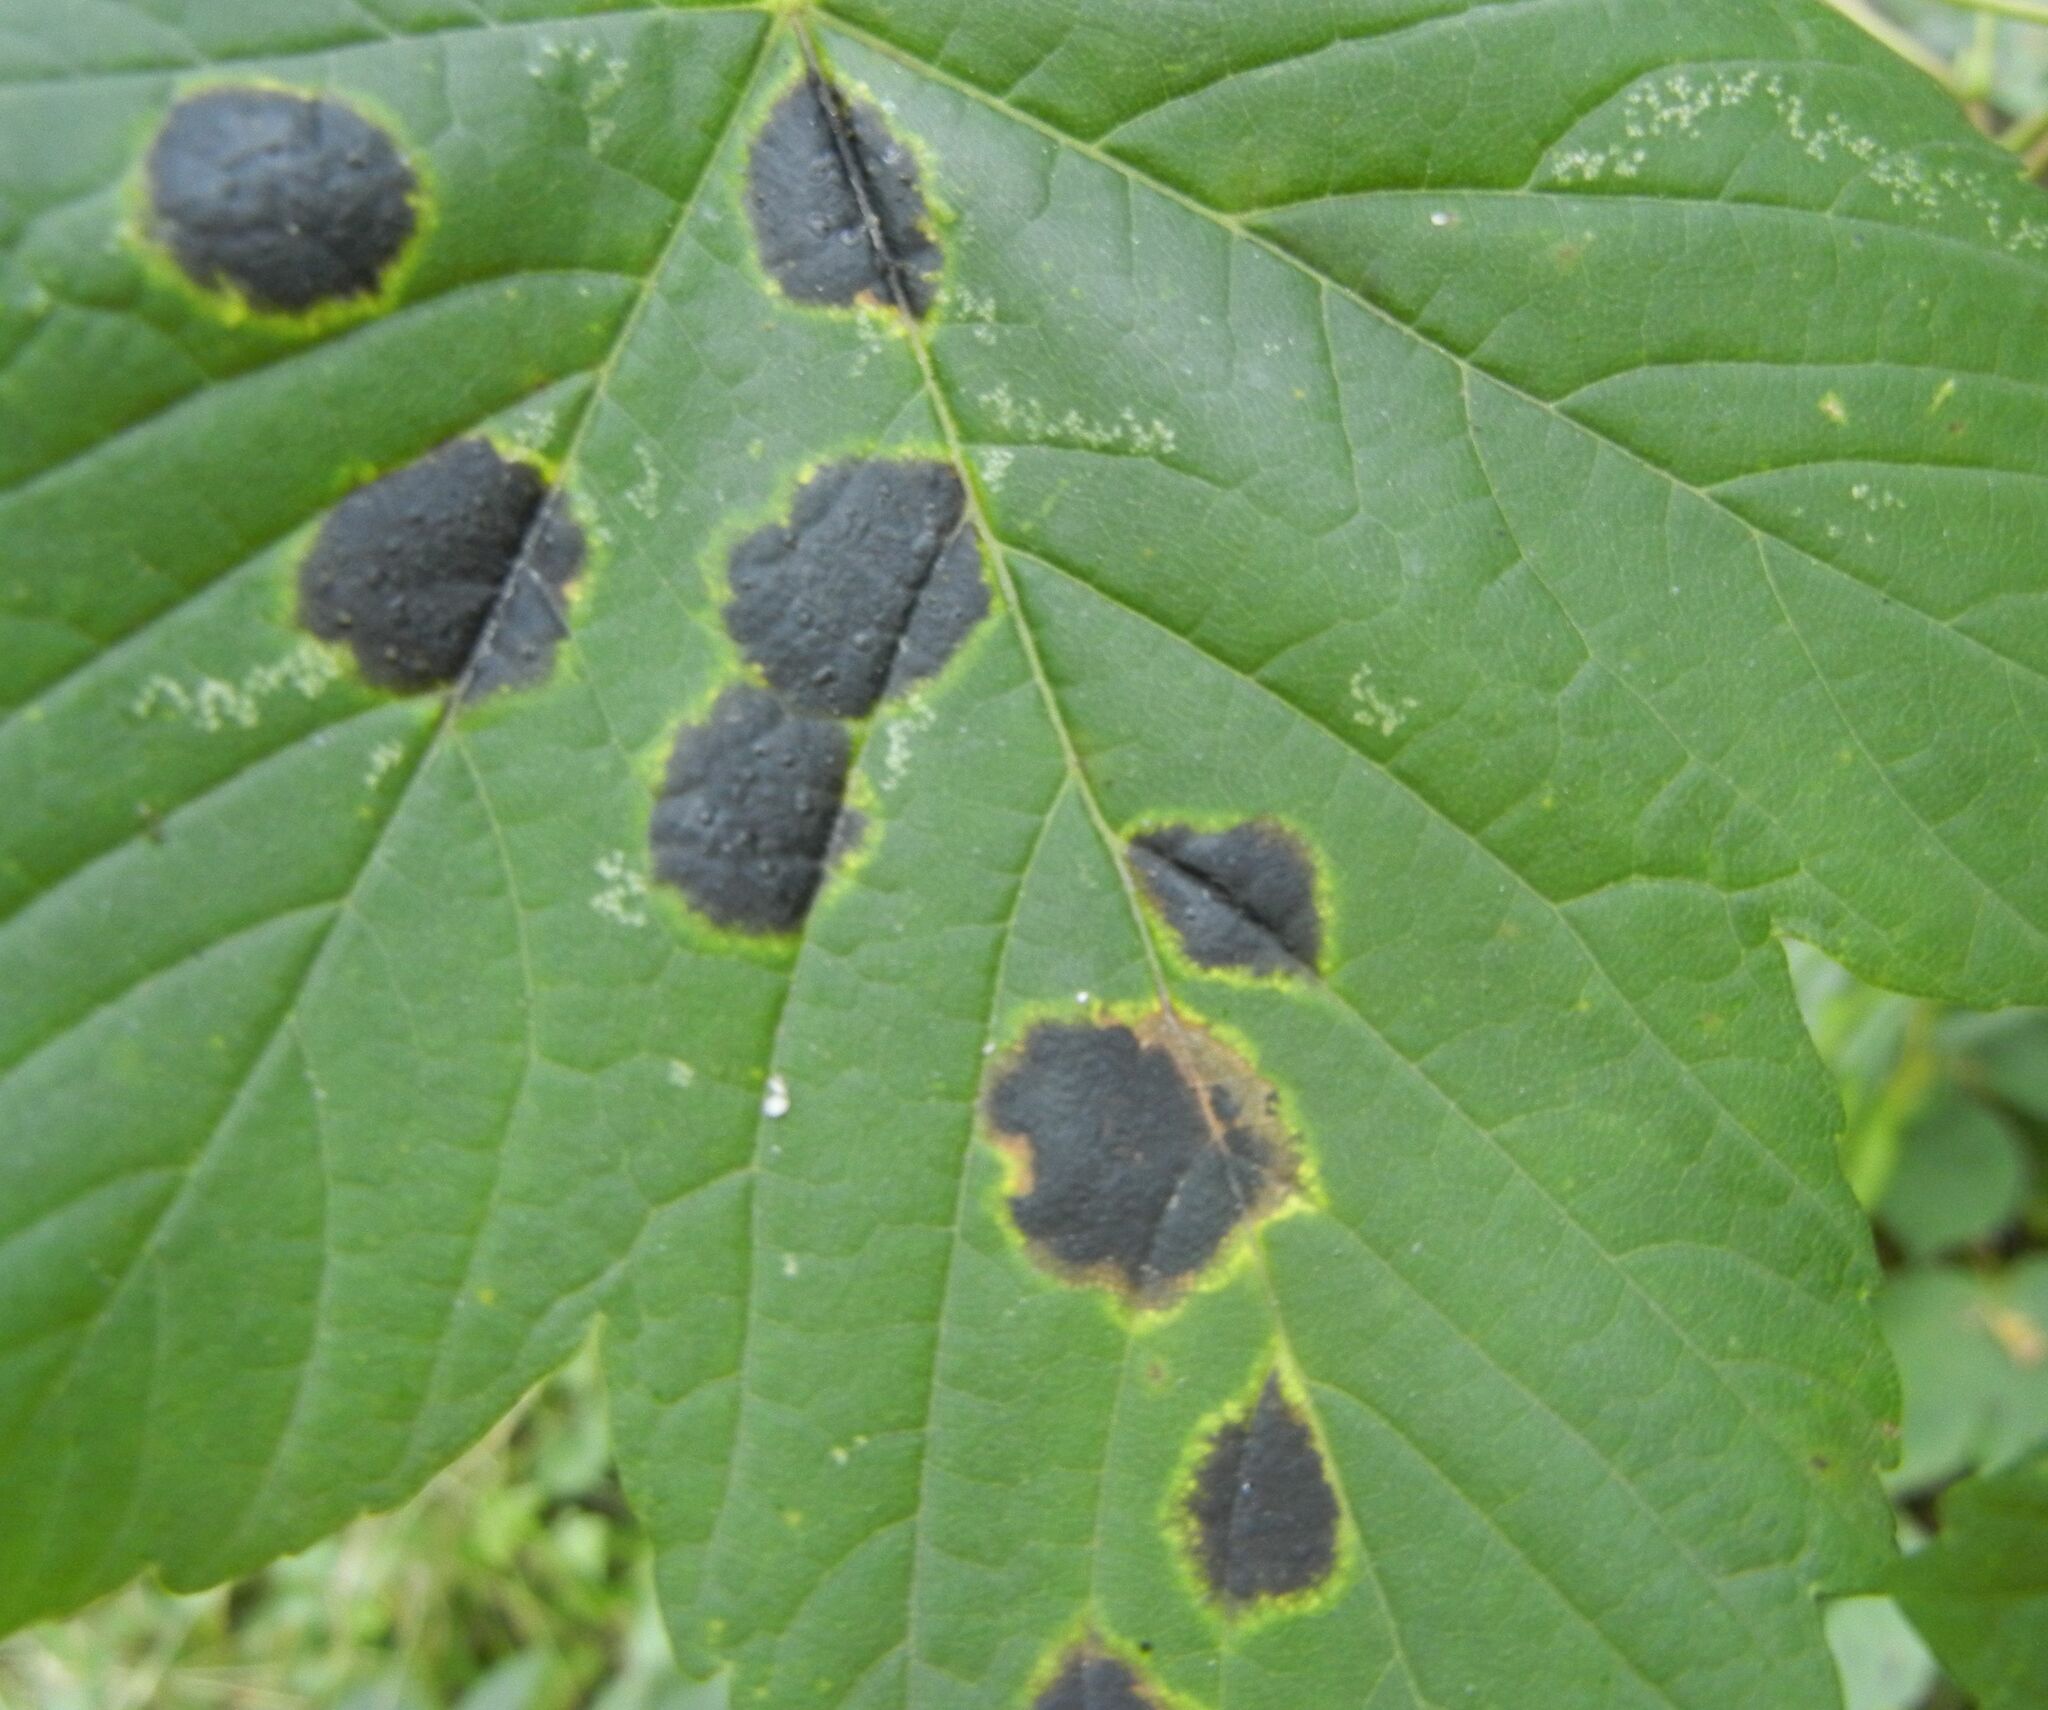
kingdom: Fungi
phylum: Ascomycota
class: Leotiomycetes
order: Rhytismatales
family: Rhytismataceae
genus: Rhytisma
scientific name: Rhytisma acerinum
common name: European tar spot
